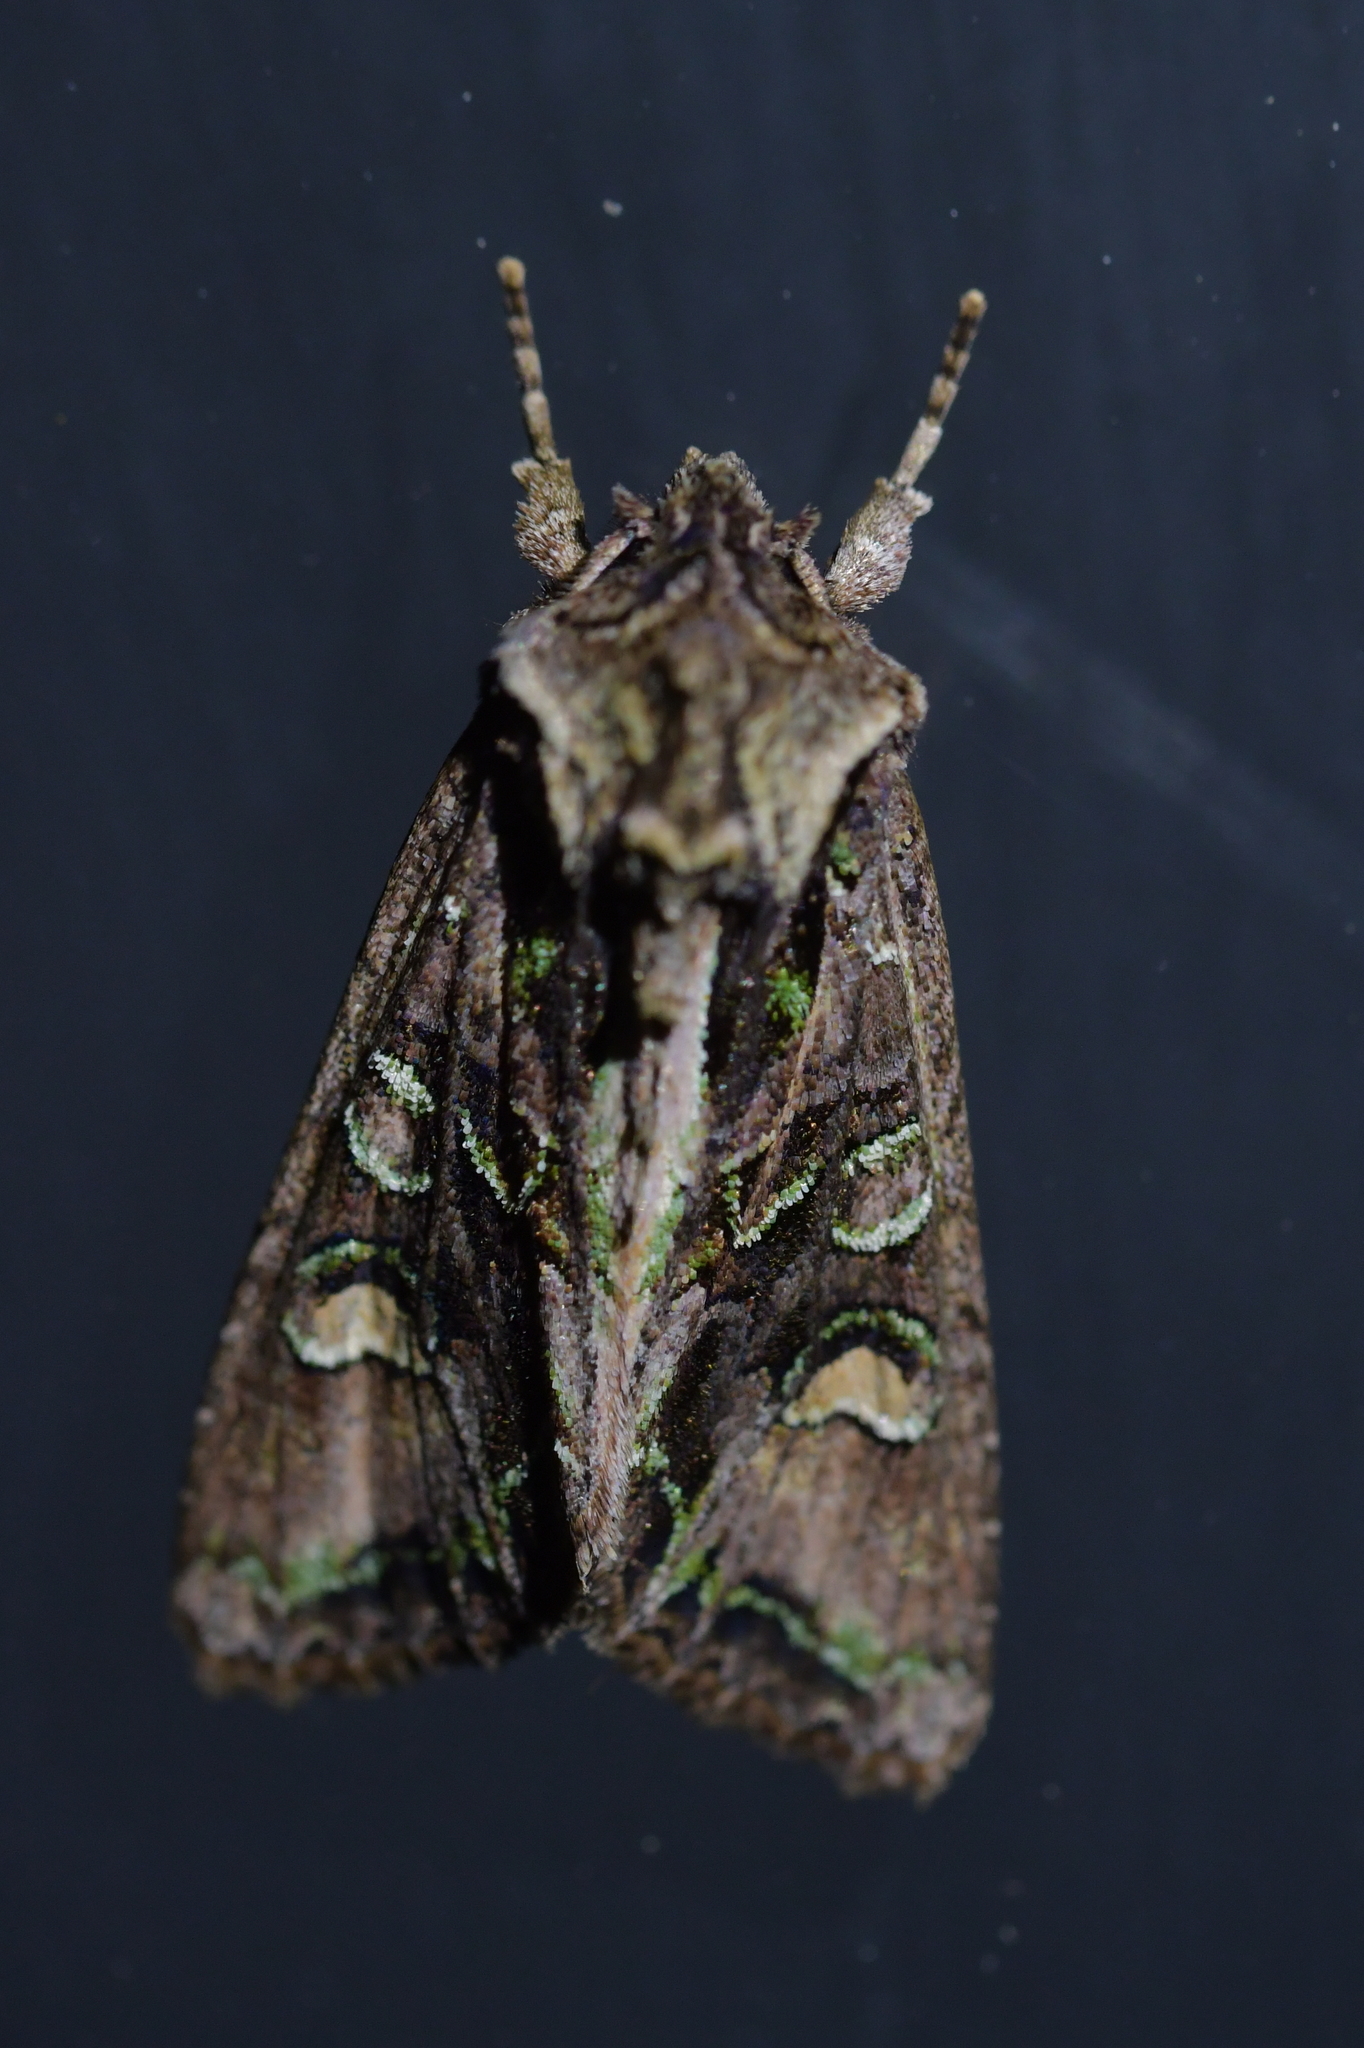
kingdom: Animalia
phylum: Arthropoda
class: Insecta
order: Lepidoptera
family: Noctuidae
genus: Ichneutica
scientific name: Ichneutica insignis
